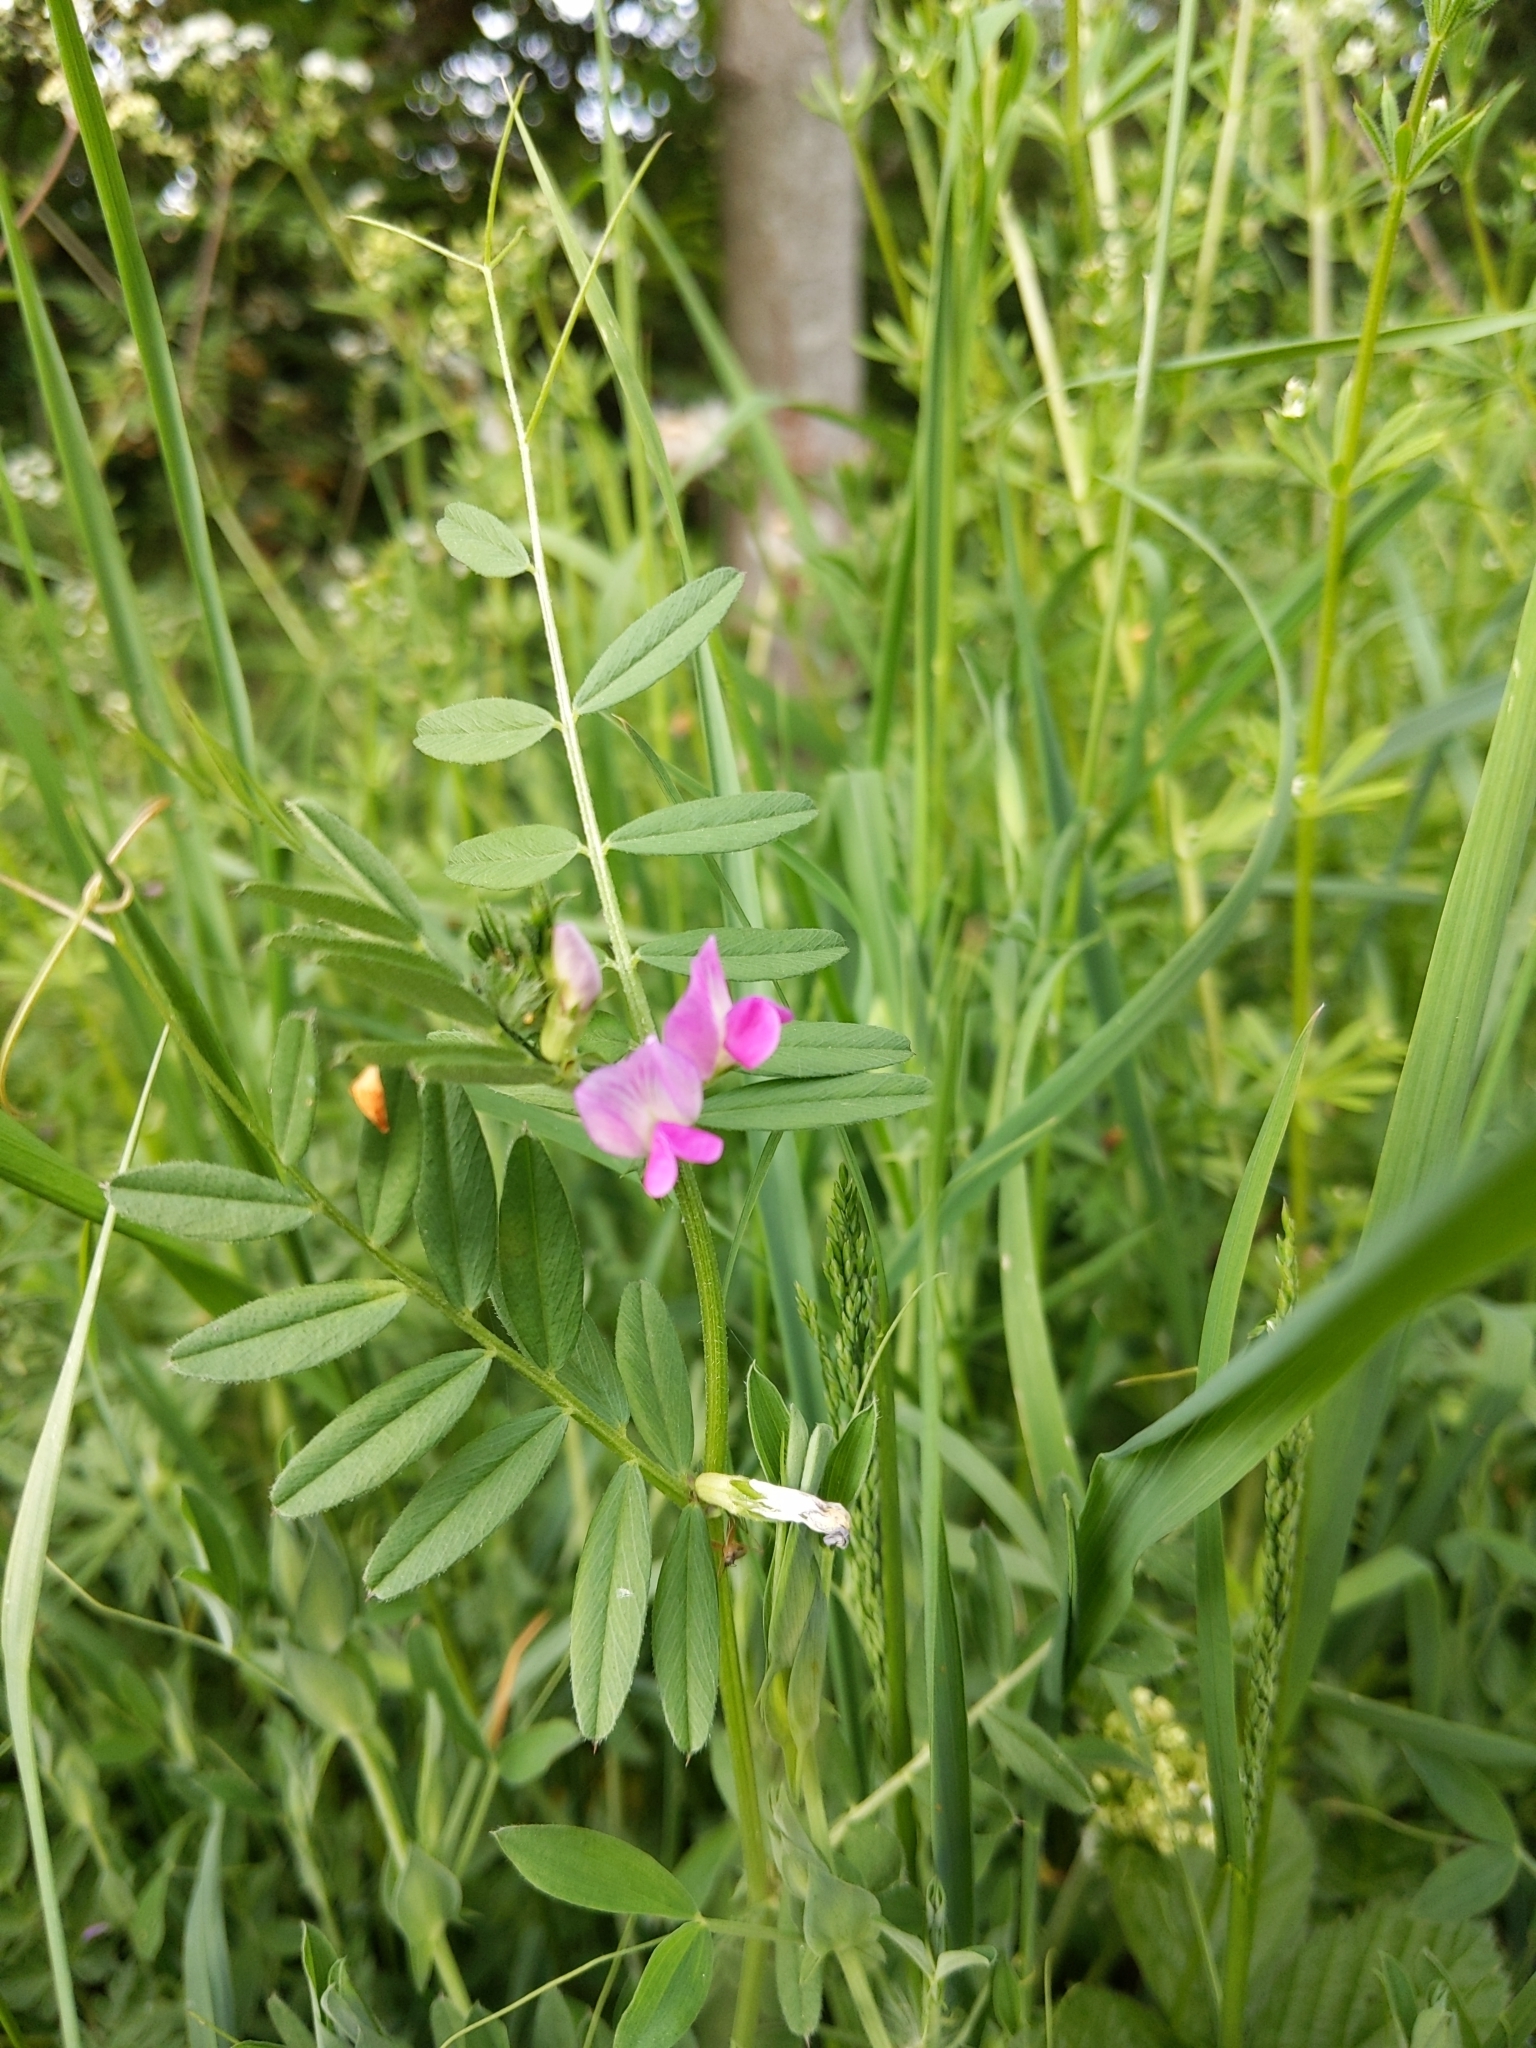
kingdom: Plantae
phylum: Tracheophyta
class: Magnoliopsida
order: Fabales
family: Fabaceae
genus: Vicia
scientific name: Vicia sativa
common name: Garden vetch
